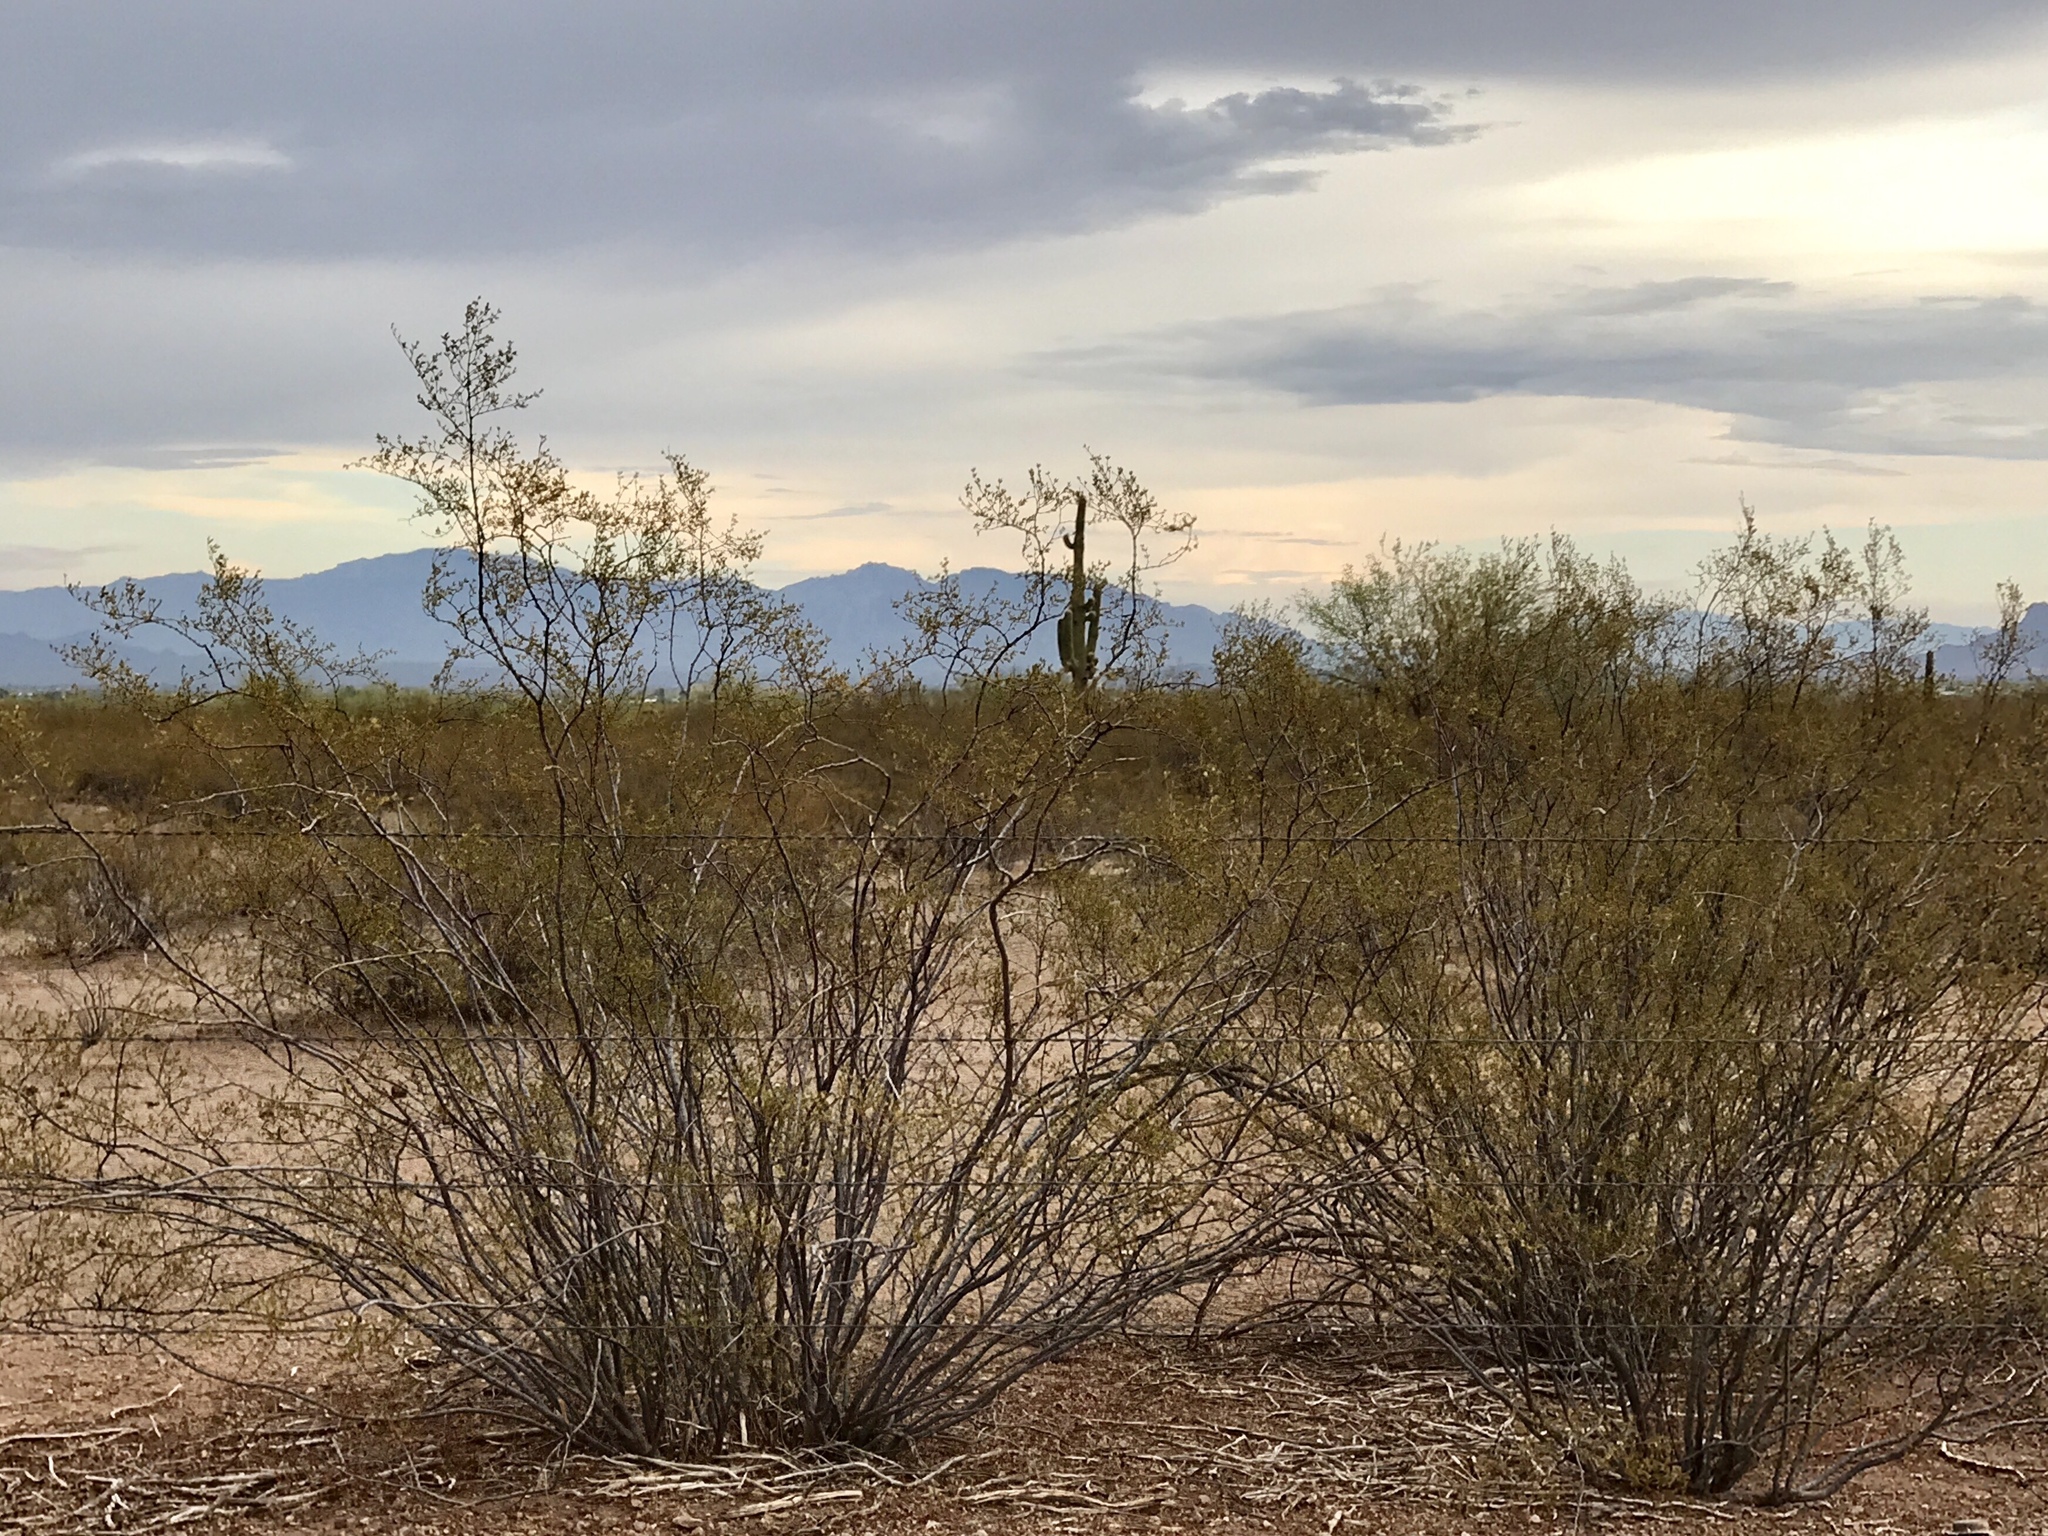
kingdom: Plantae
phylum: Tracheophyta
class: Magnoliopsida
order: Zygophyllales
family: Zygophyllaceae
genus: Larrea
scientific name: Larrea tridentata
